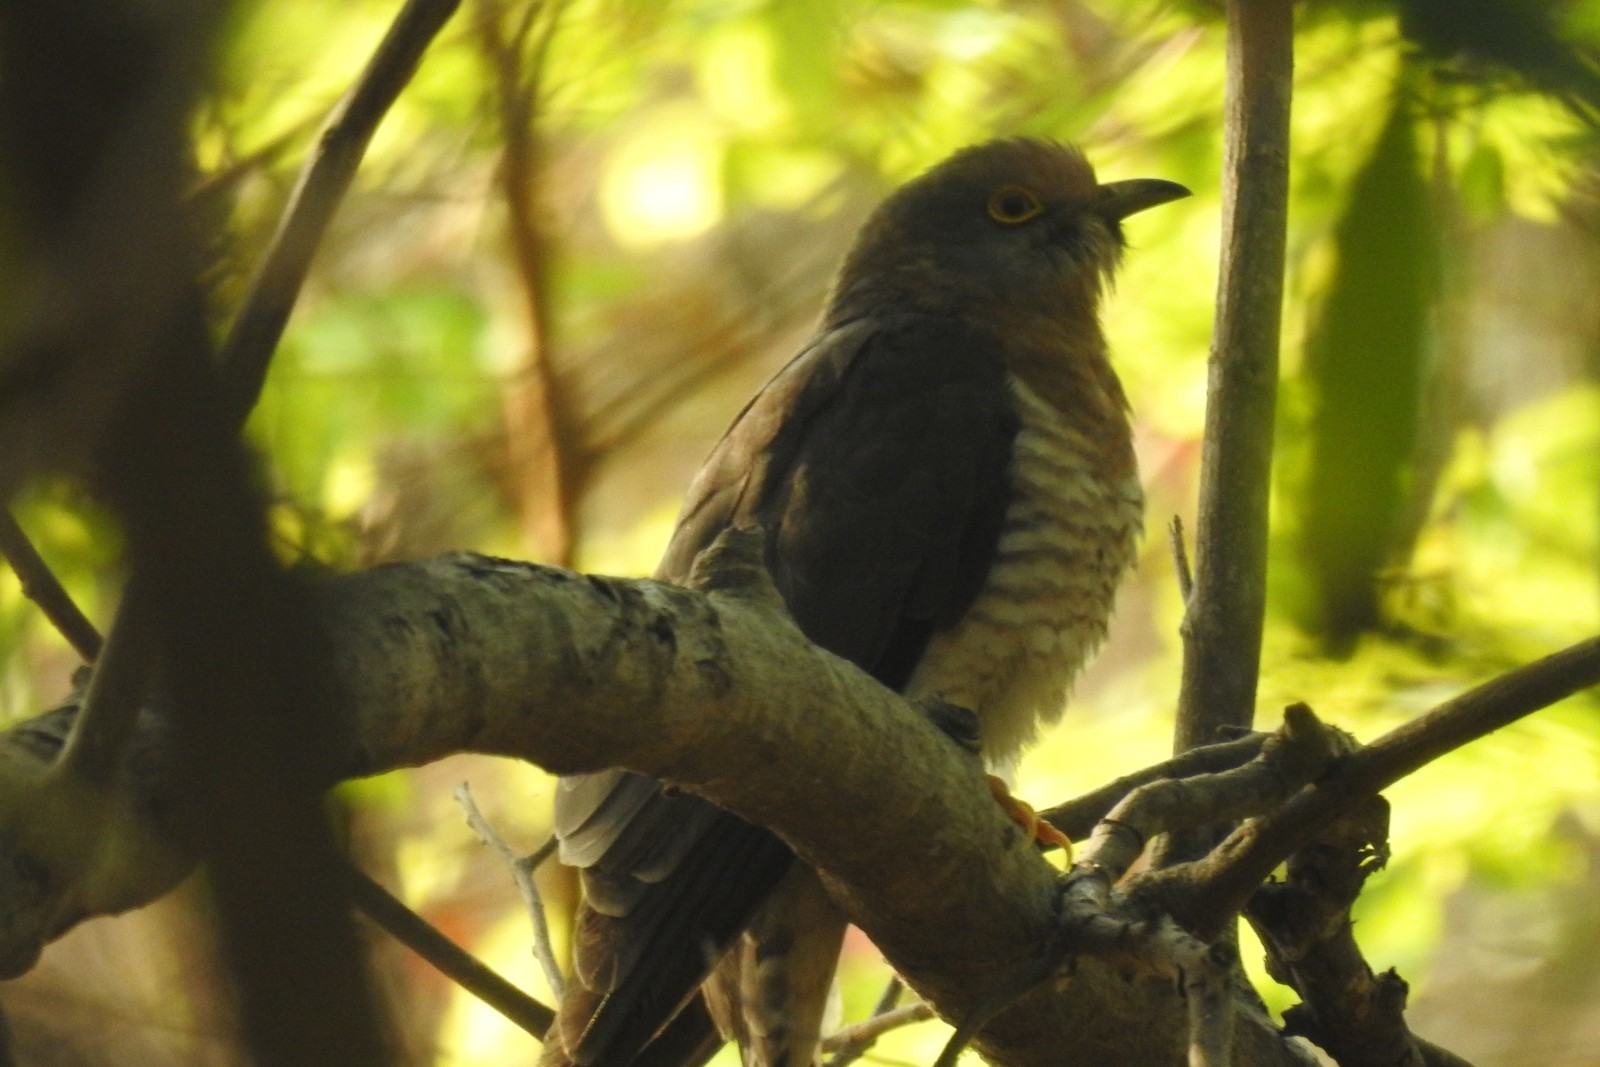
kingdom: Animalia
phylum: Chordata
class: Aves
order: Cuculiformes
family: Cuculidae
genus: Cuculus
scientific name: Cuculus varius
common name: Common hawk cuckoo
